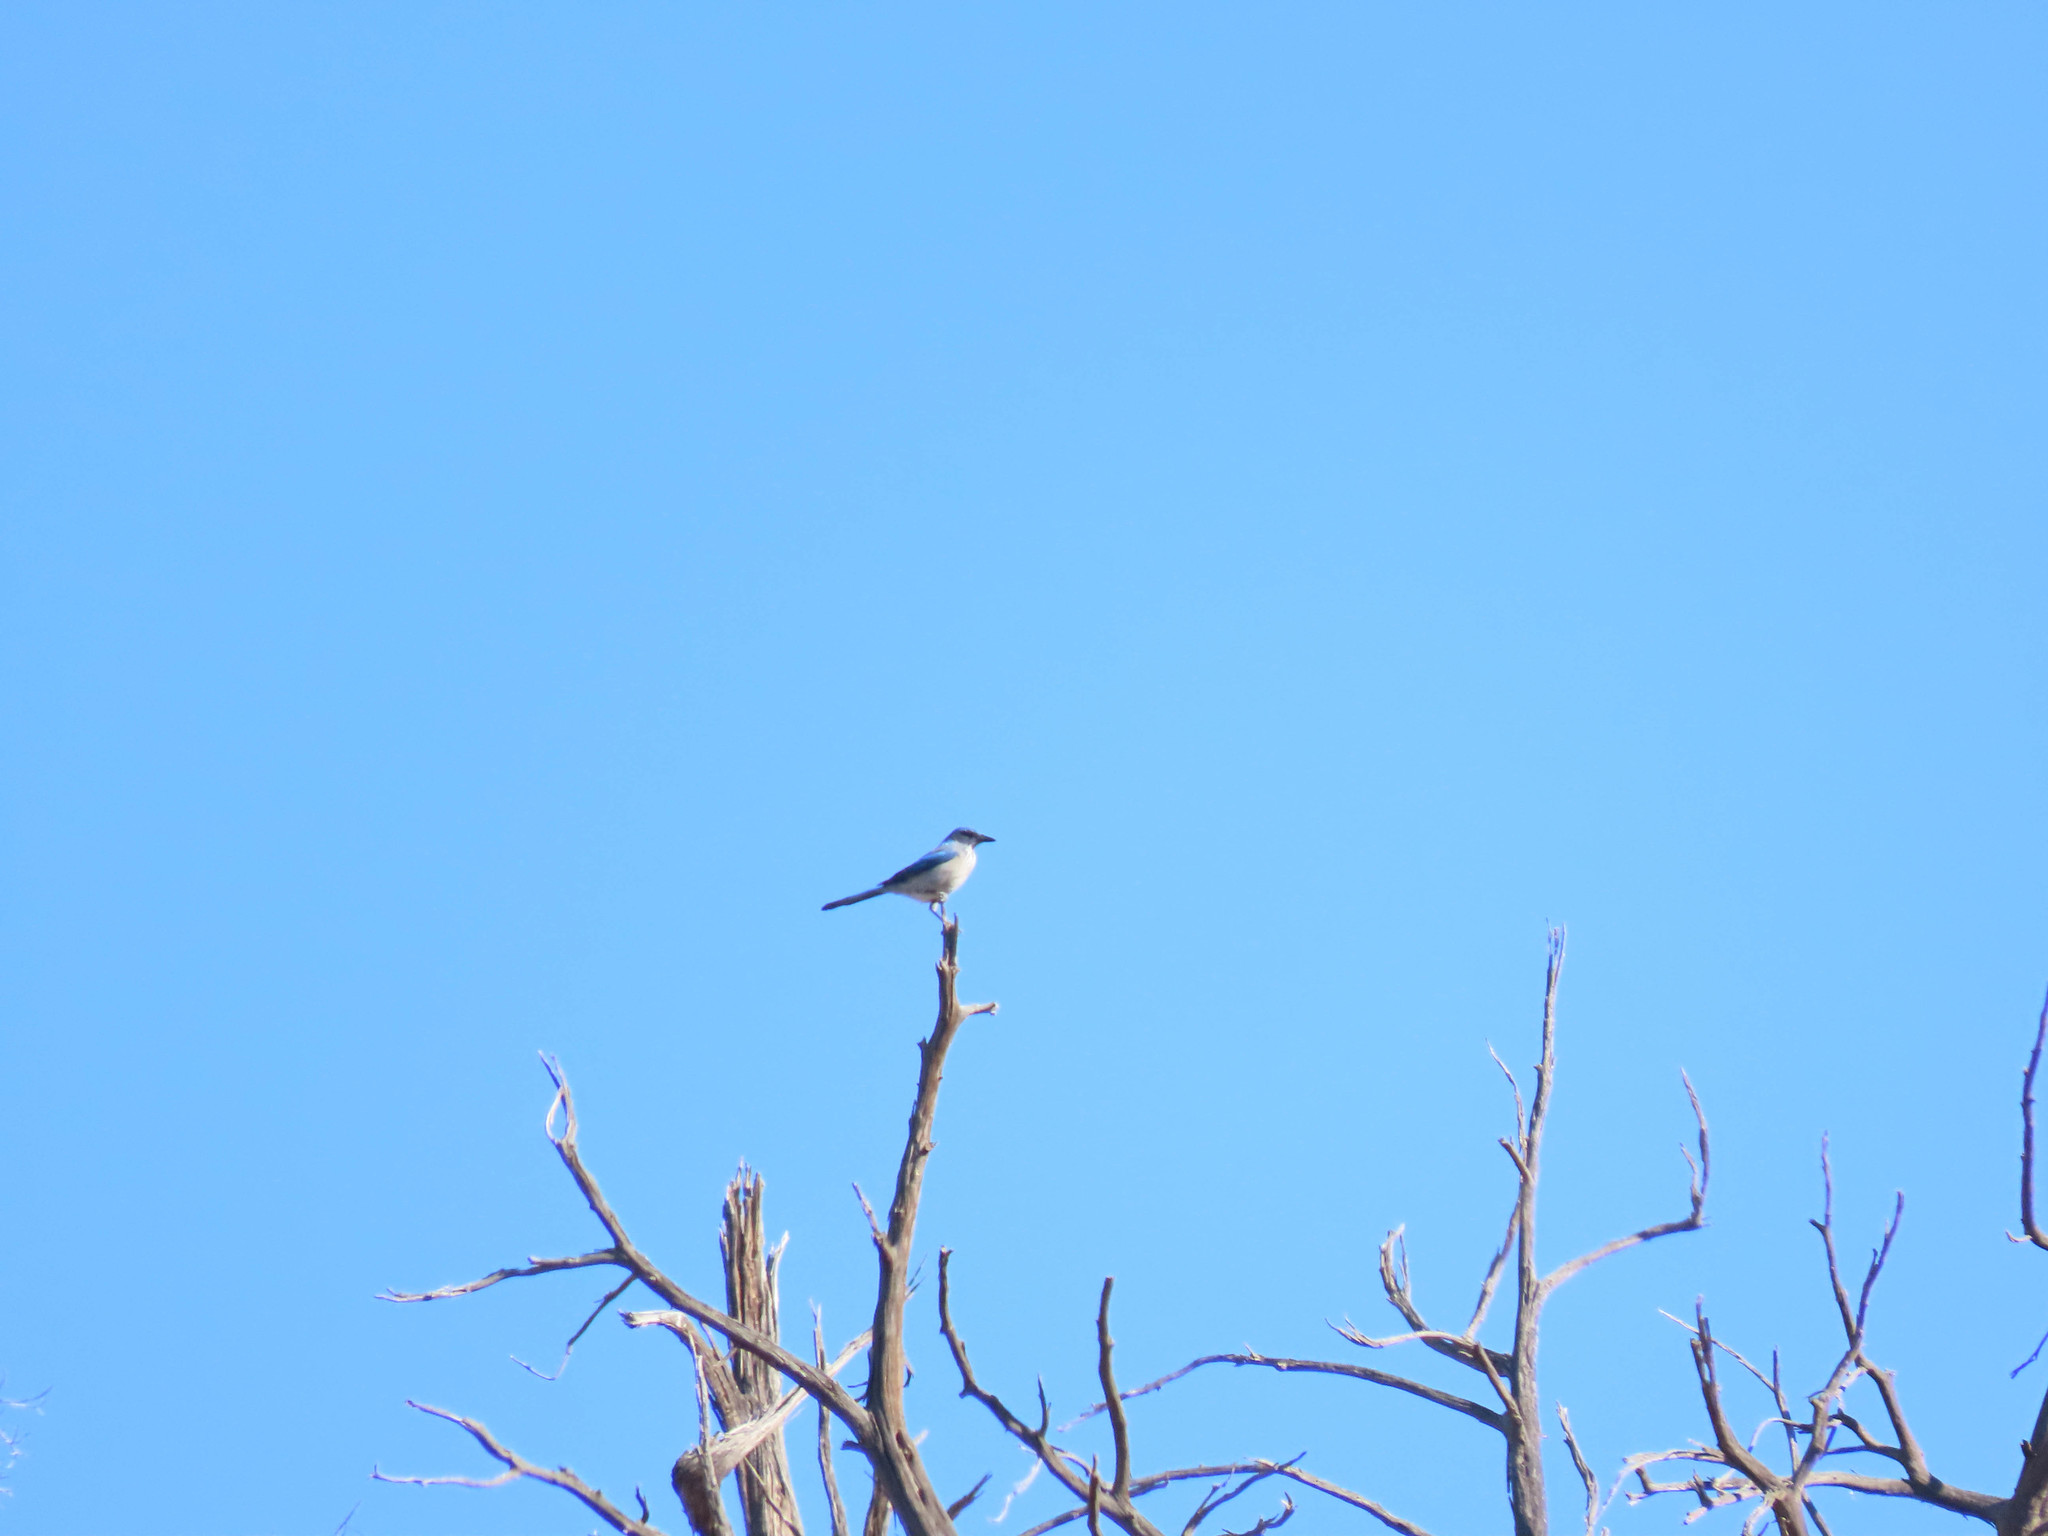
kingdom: Animalia
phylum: Chordata
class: Aves
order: Passeriformes
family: Corvidae
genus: Aphelocoma
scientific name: Aphelocoma woodhouseii
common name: Woodhouse's scrub-jay
